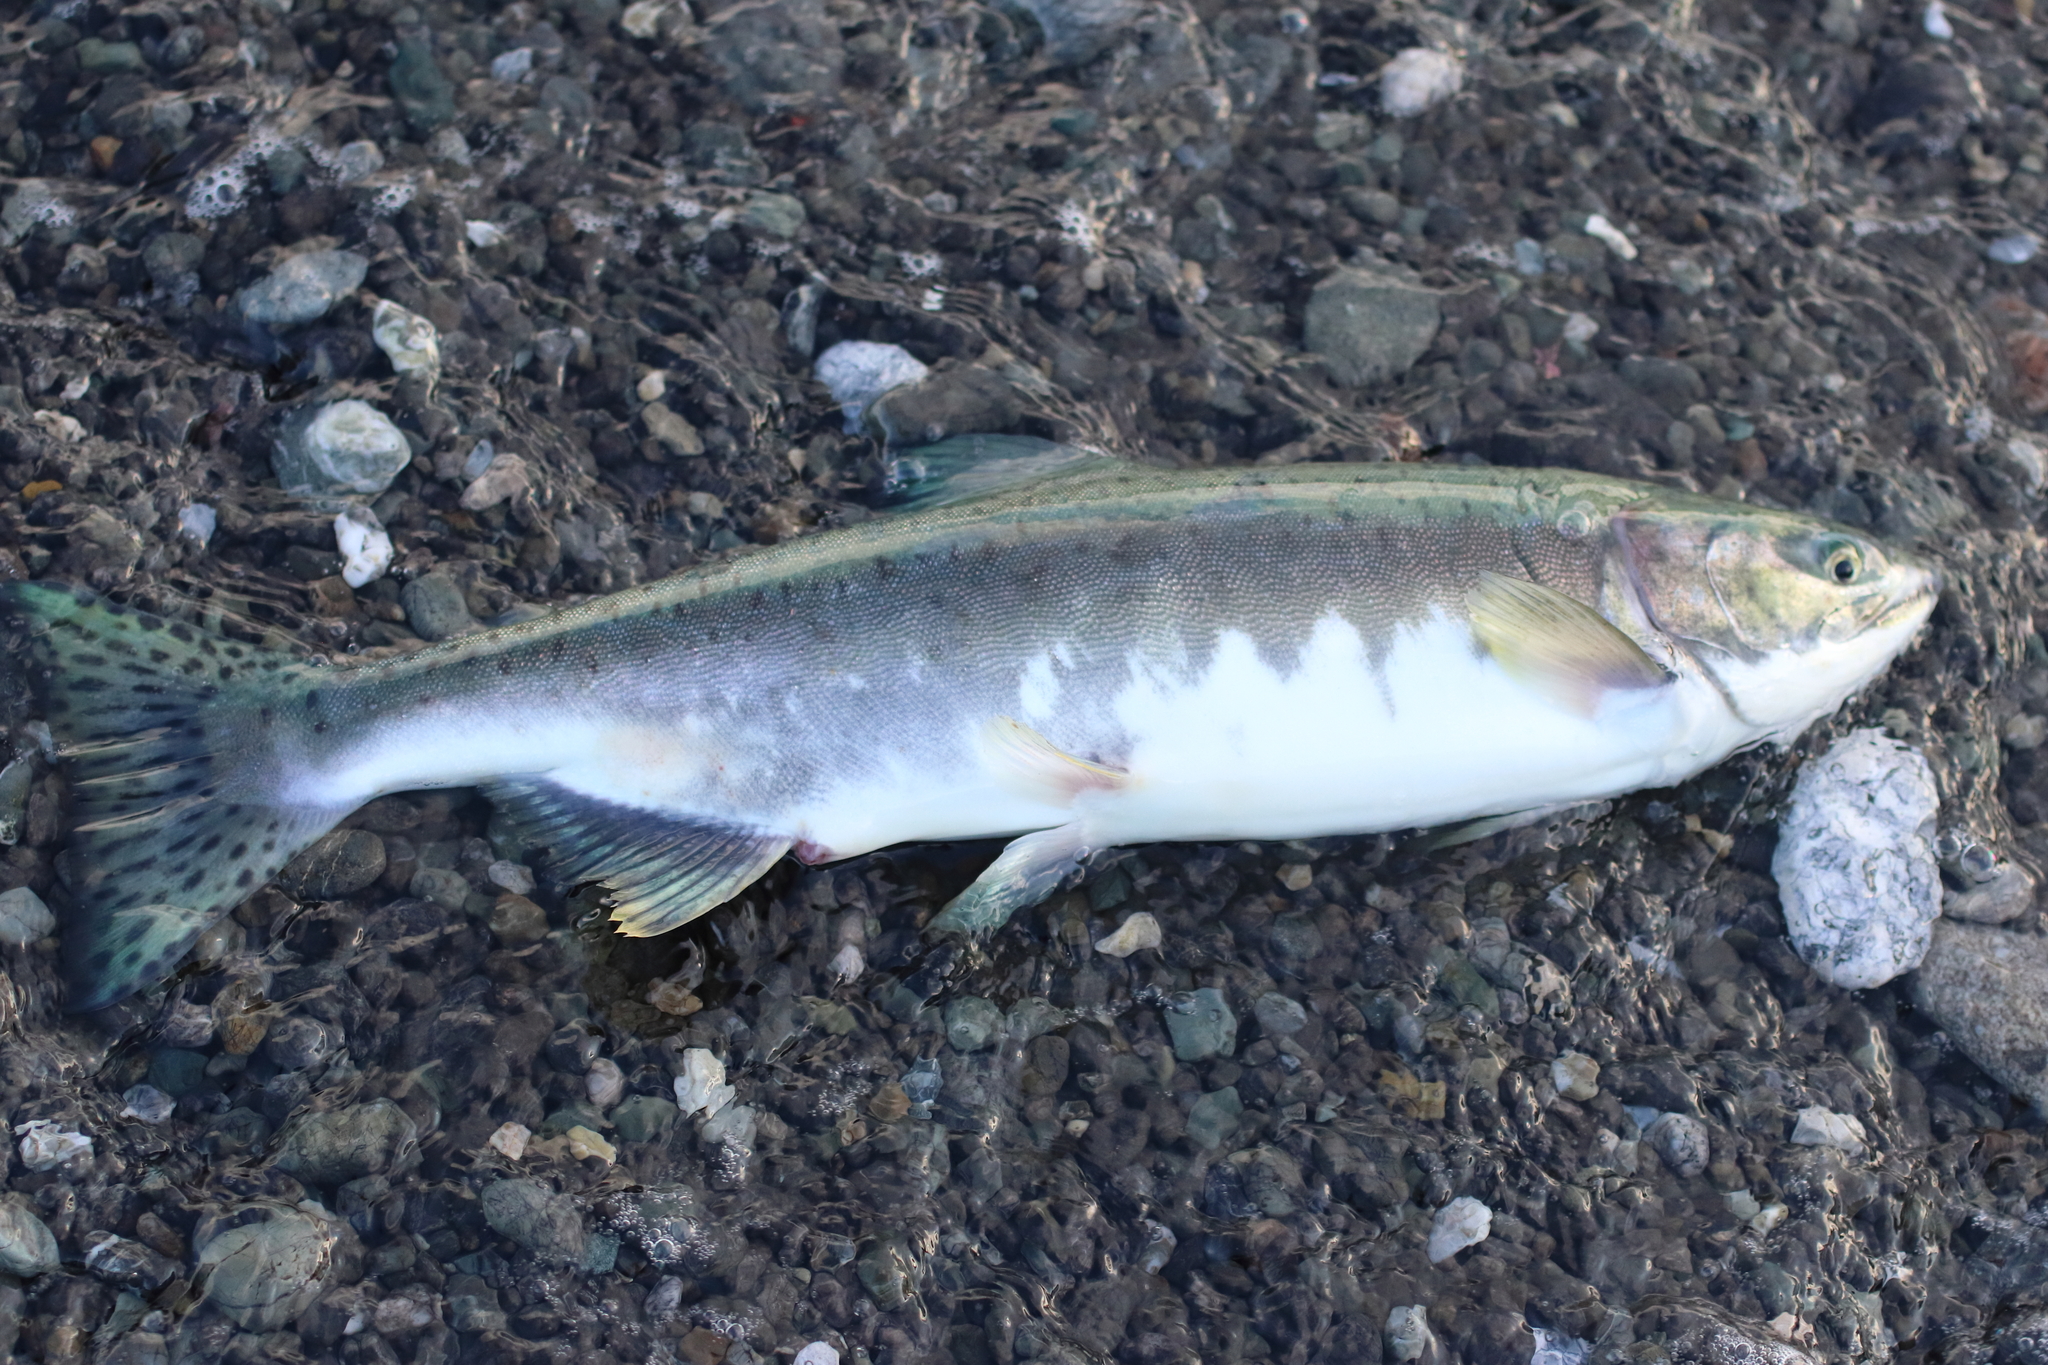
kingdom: Animalia
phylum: Chordata
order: Salmoniformes
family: Salmonidae
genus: Oncorhynchus
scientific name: Oncorhynchus gorbuscha
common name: Humpback salmon
